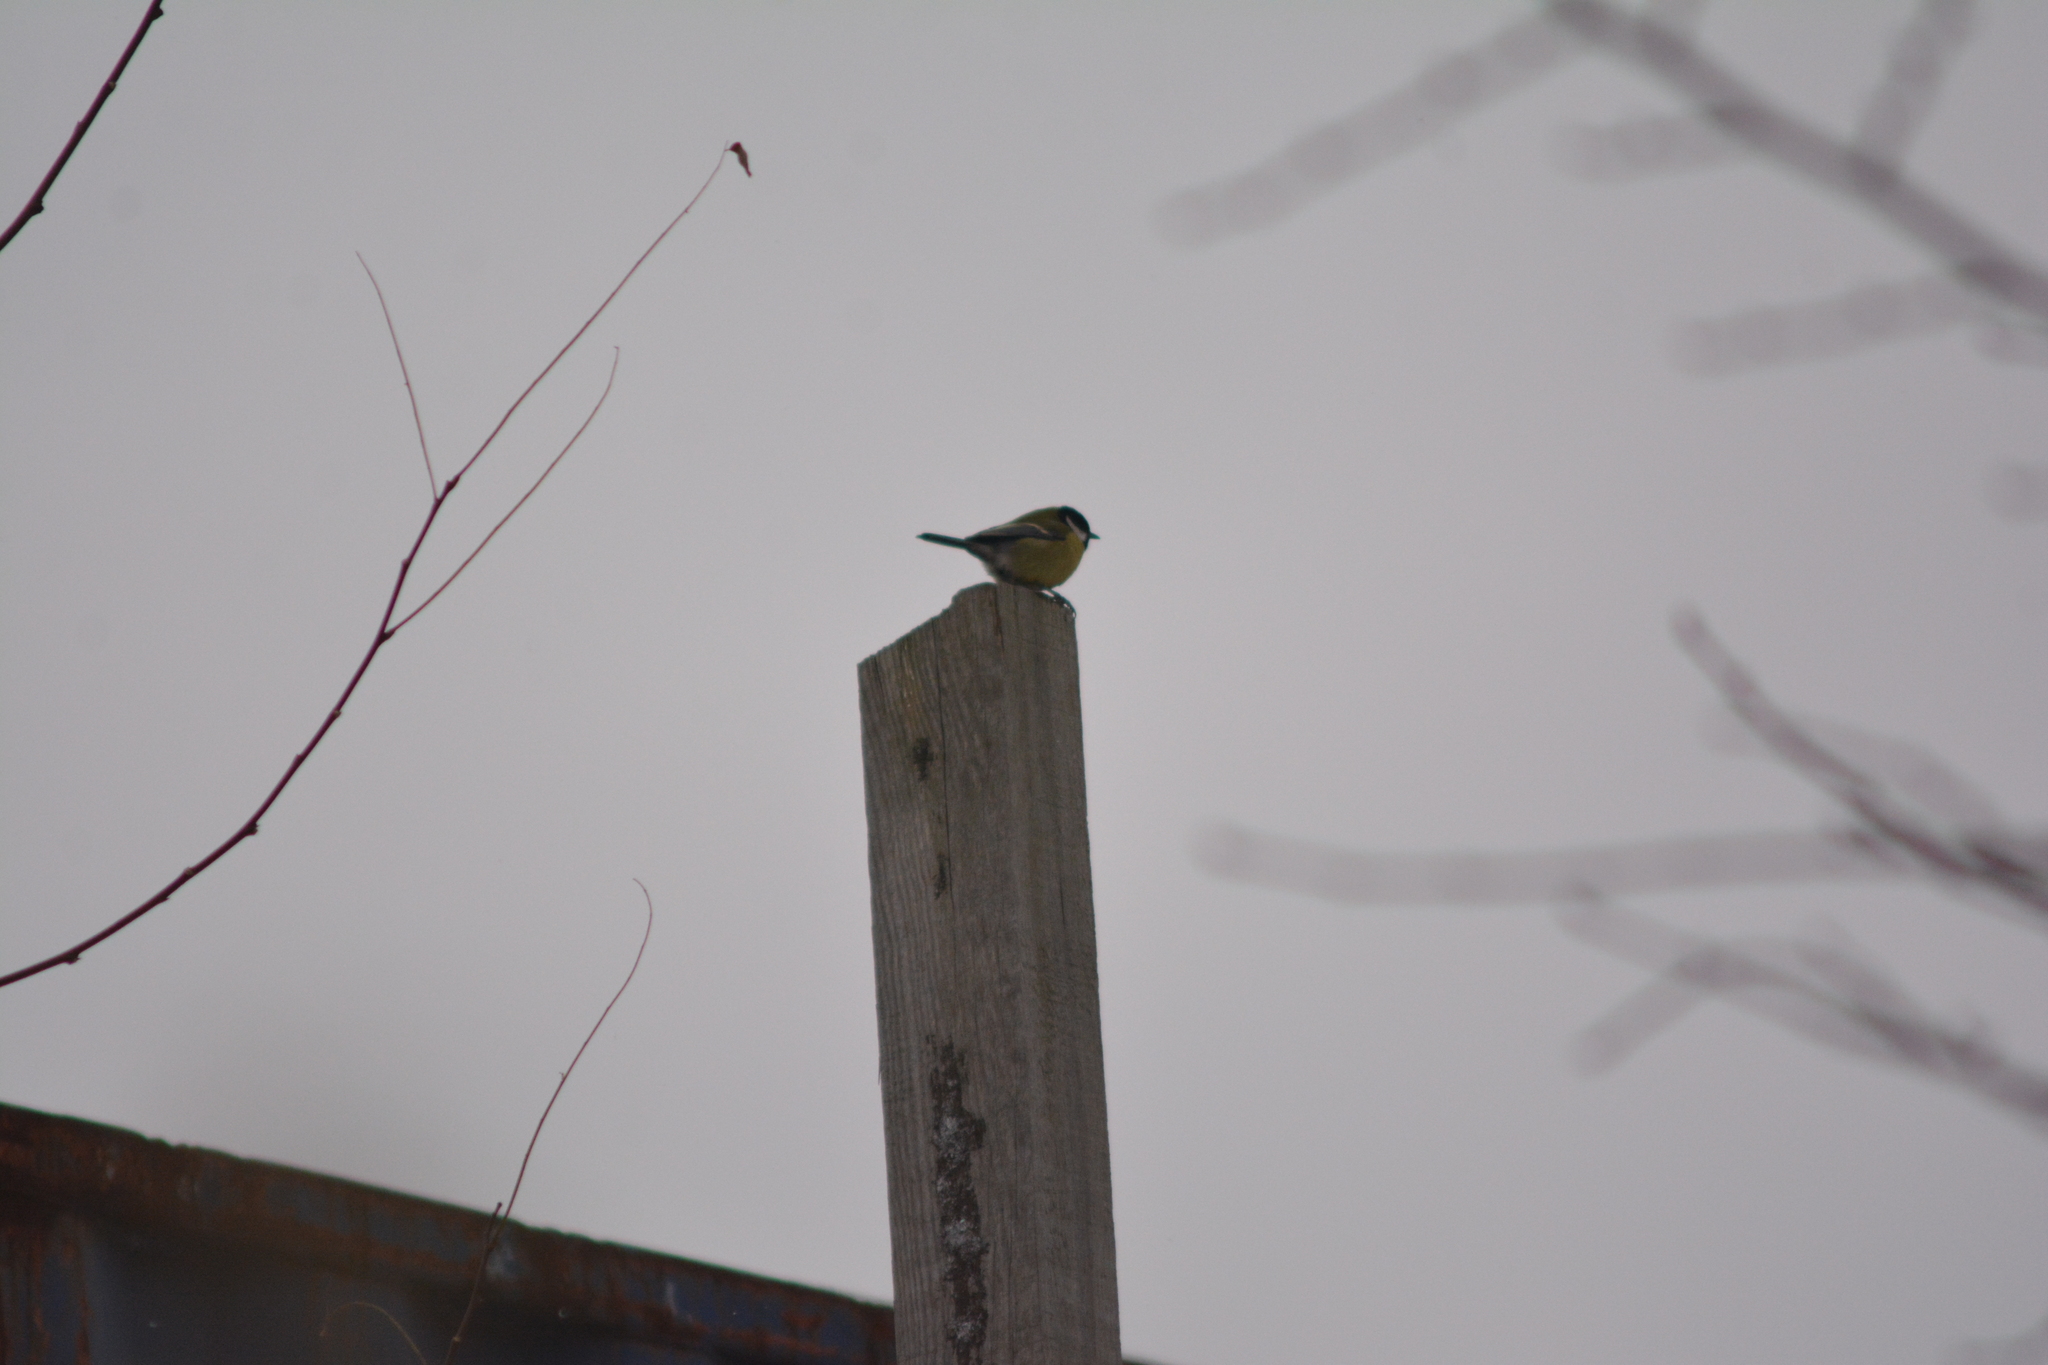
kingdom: Animalia
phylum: Chordata
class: Aves
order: Passeriformes
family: Paridae
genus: Parus
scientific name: Parus major
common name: Great tit
